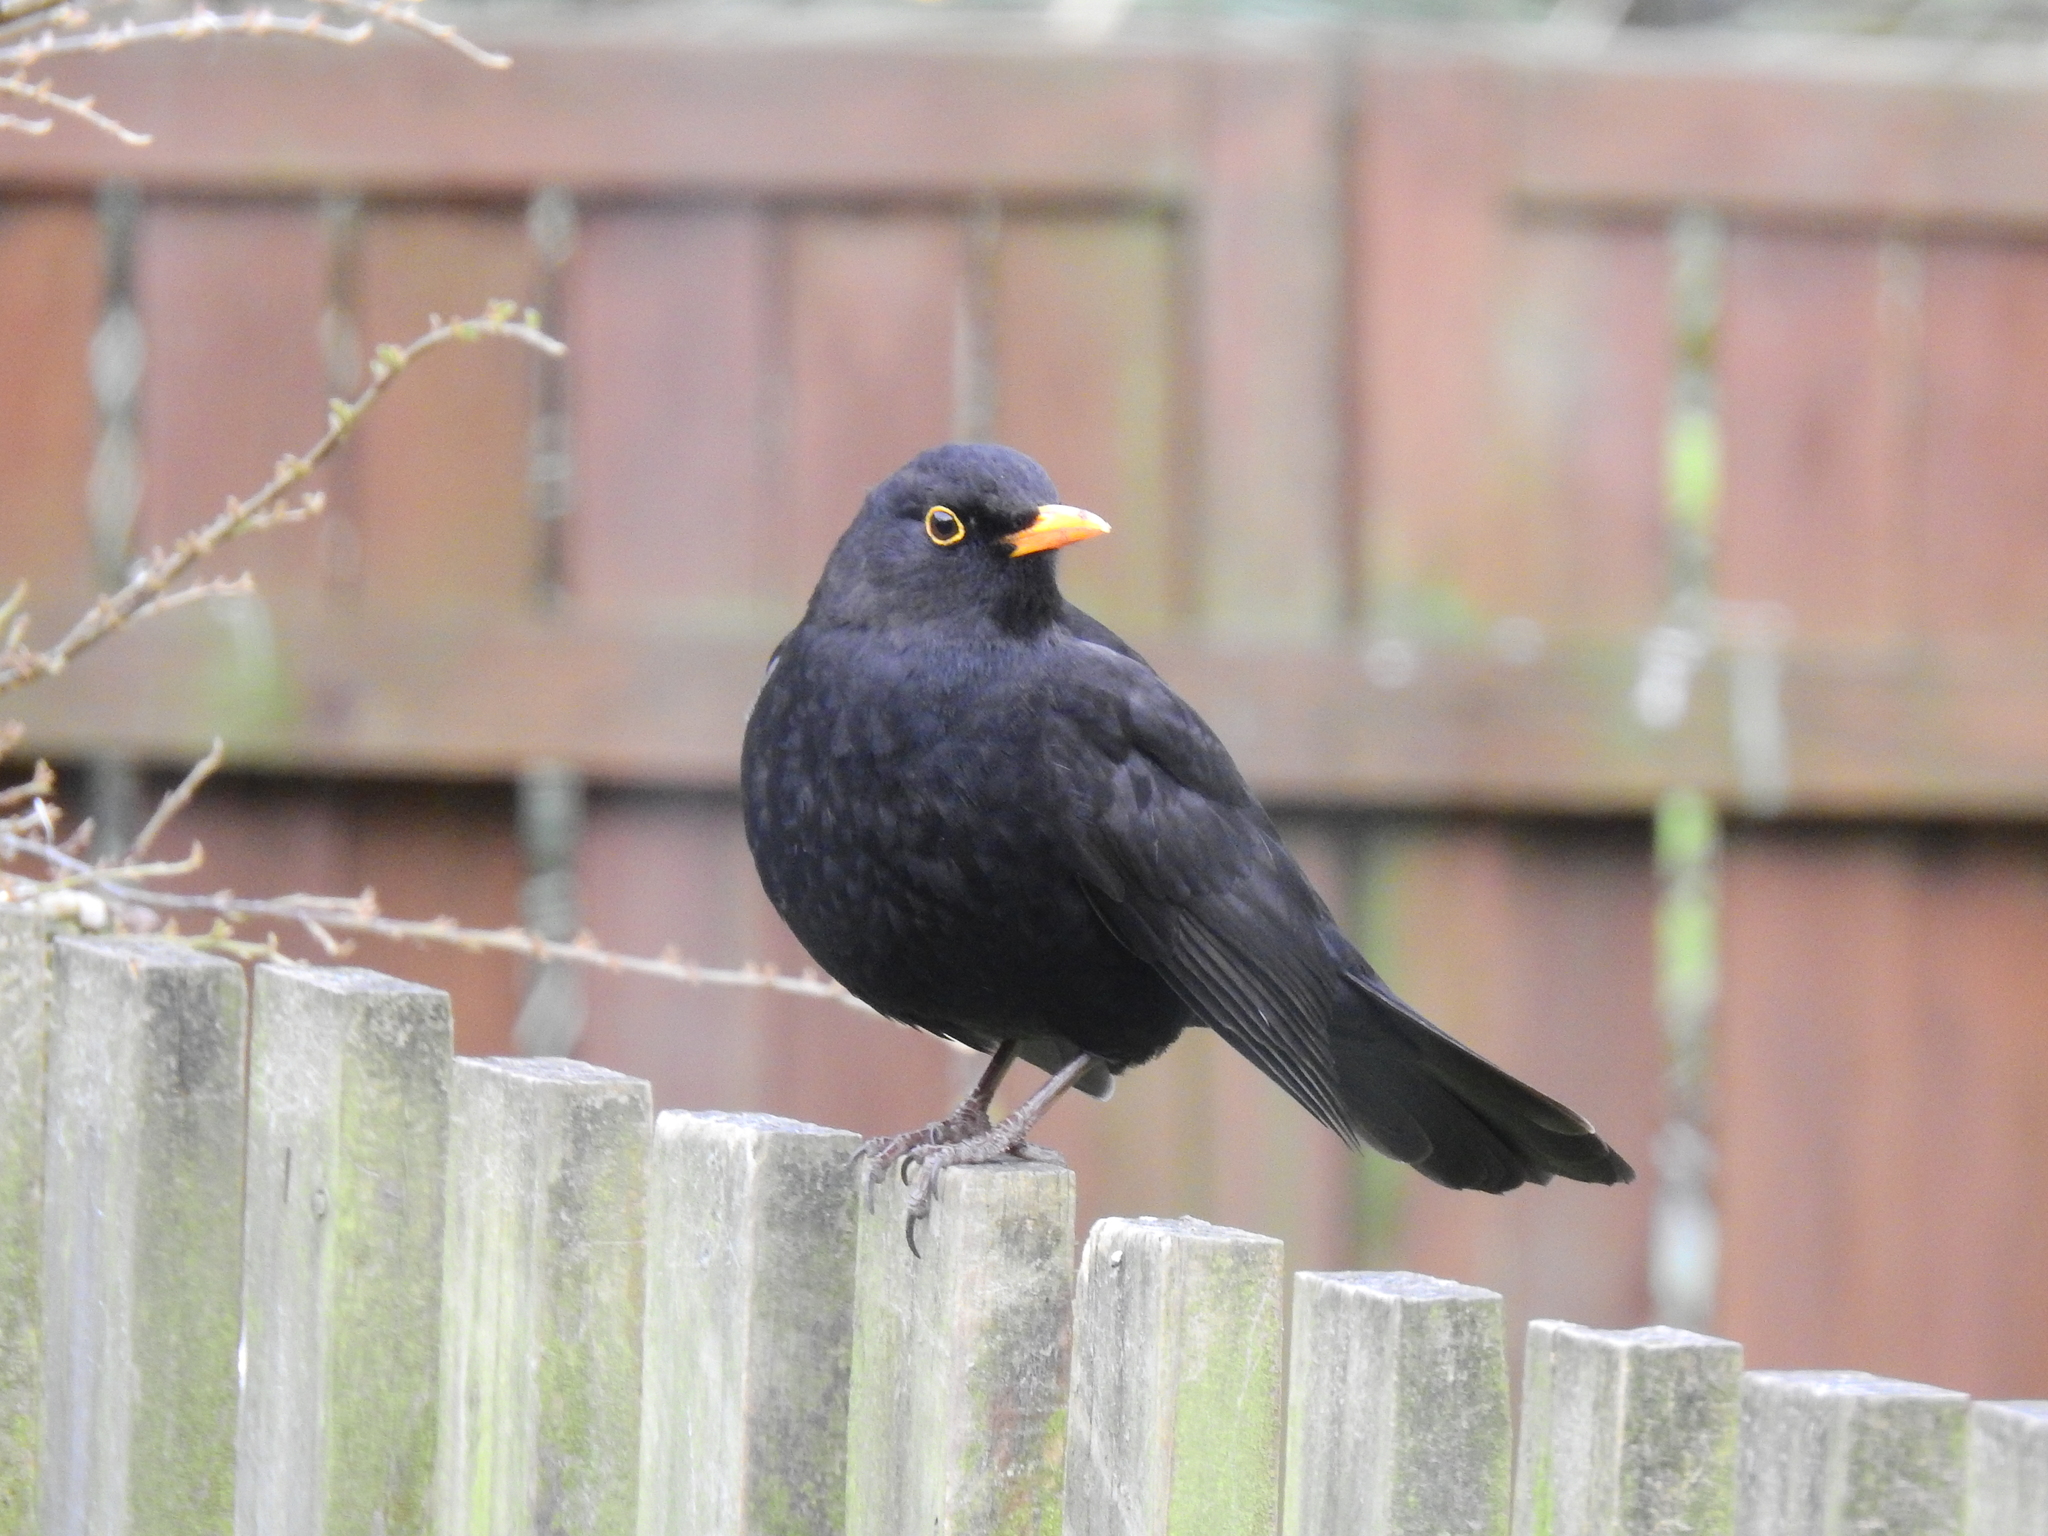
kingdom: Animalia
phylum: Chordata
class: Aves
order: Passeriformes
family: Turdidae
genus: Turdus
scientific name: Turdus merula
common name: Common blackbird
